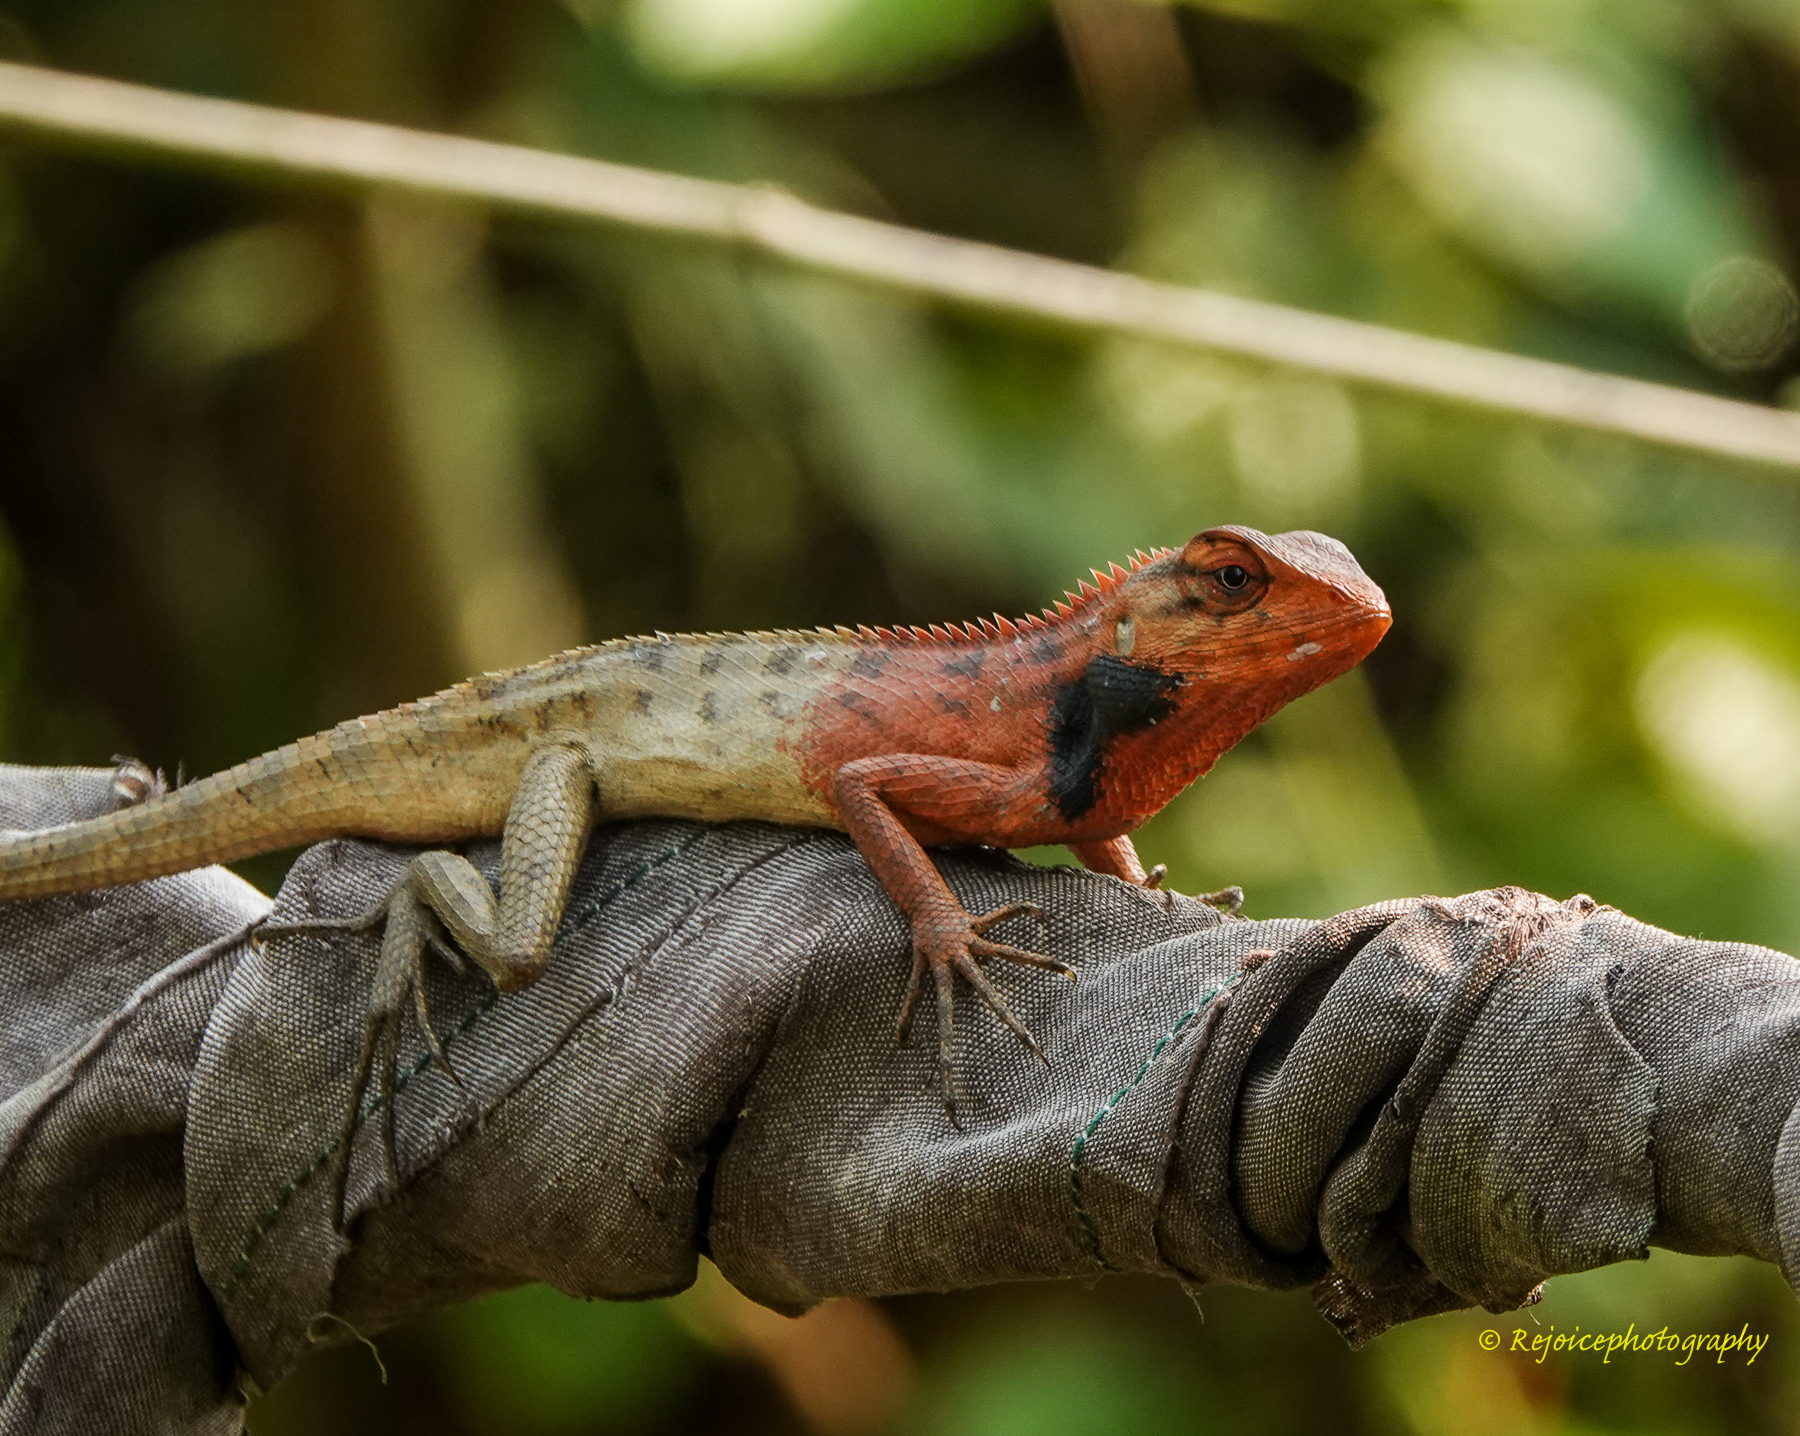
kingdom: Animalia
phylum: Chordata
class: Squamata
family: Agamidae
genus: Calotes
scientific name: Calotes versicolor
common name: Oriental garden lizard
